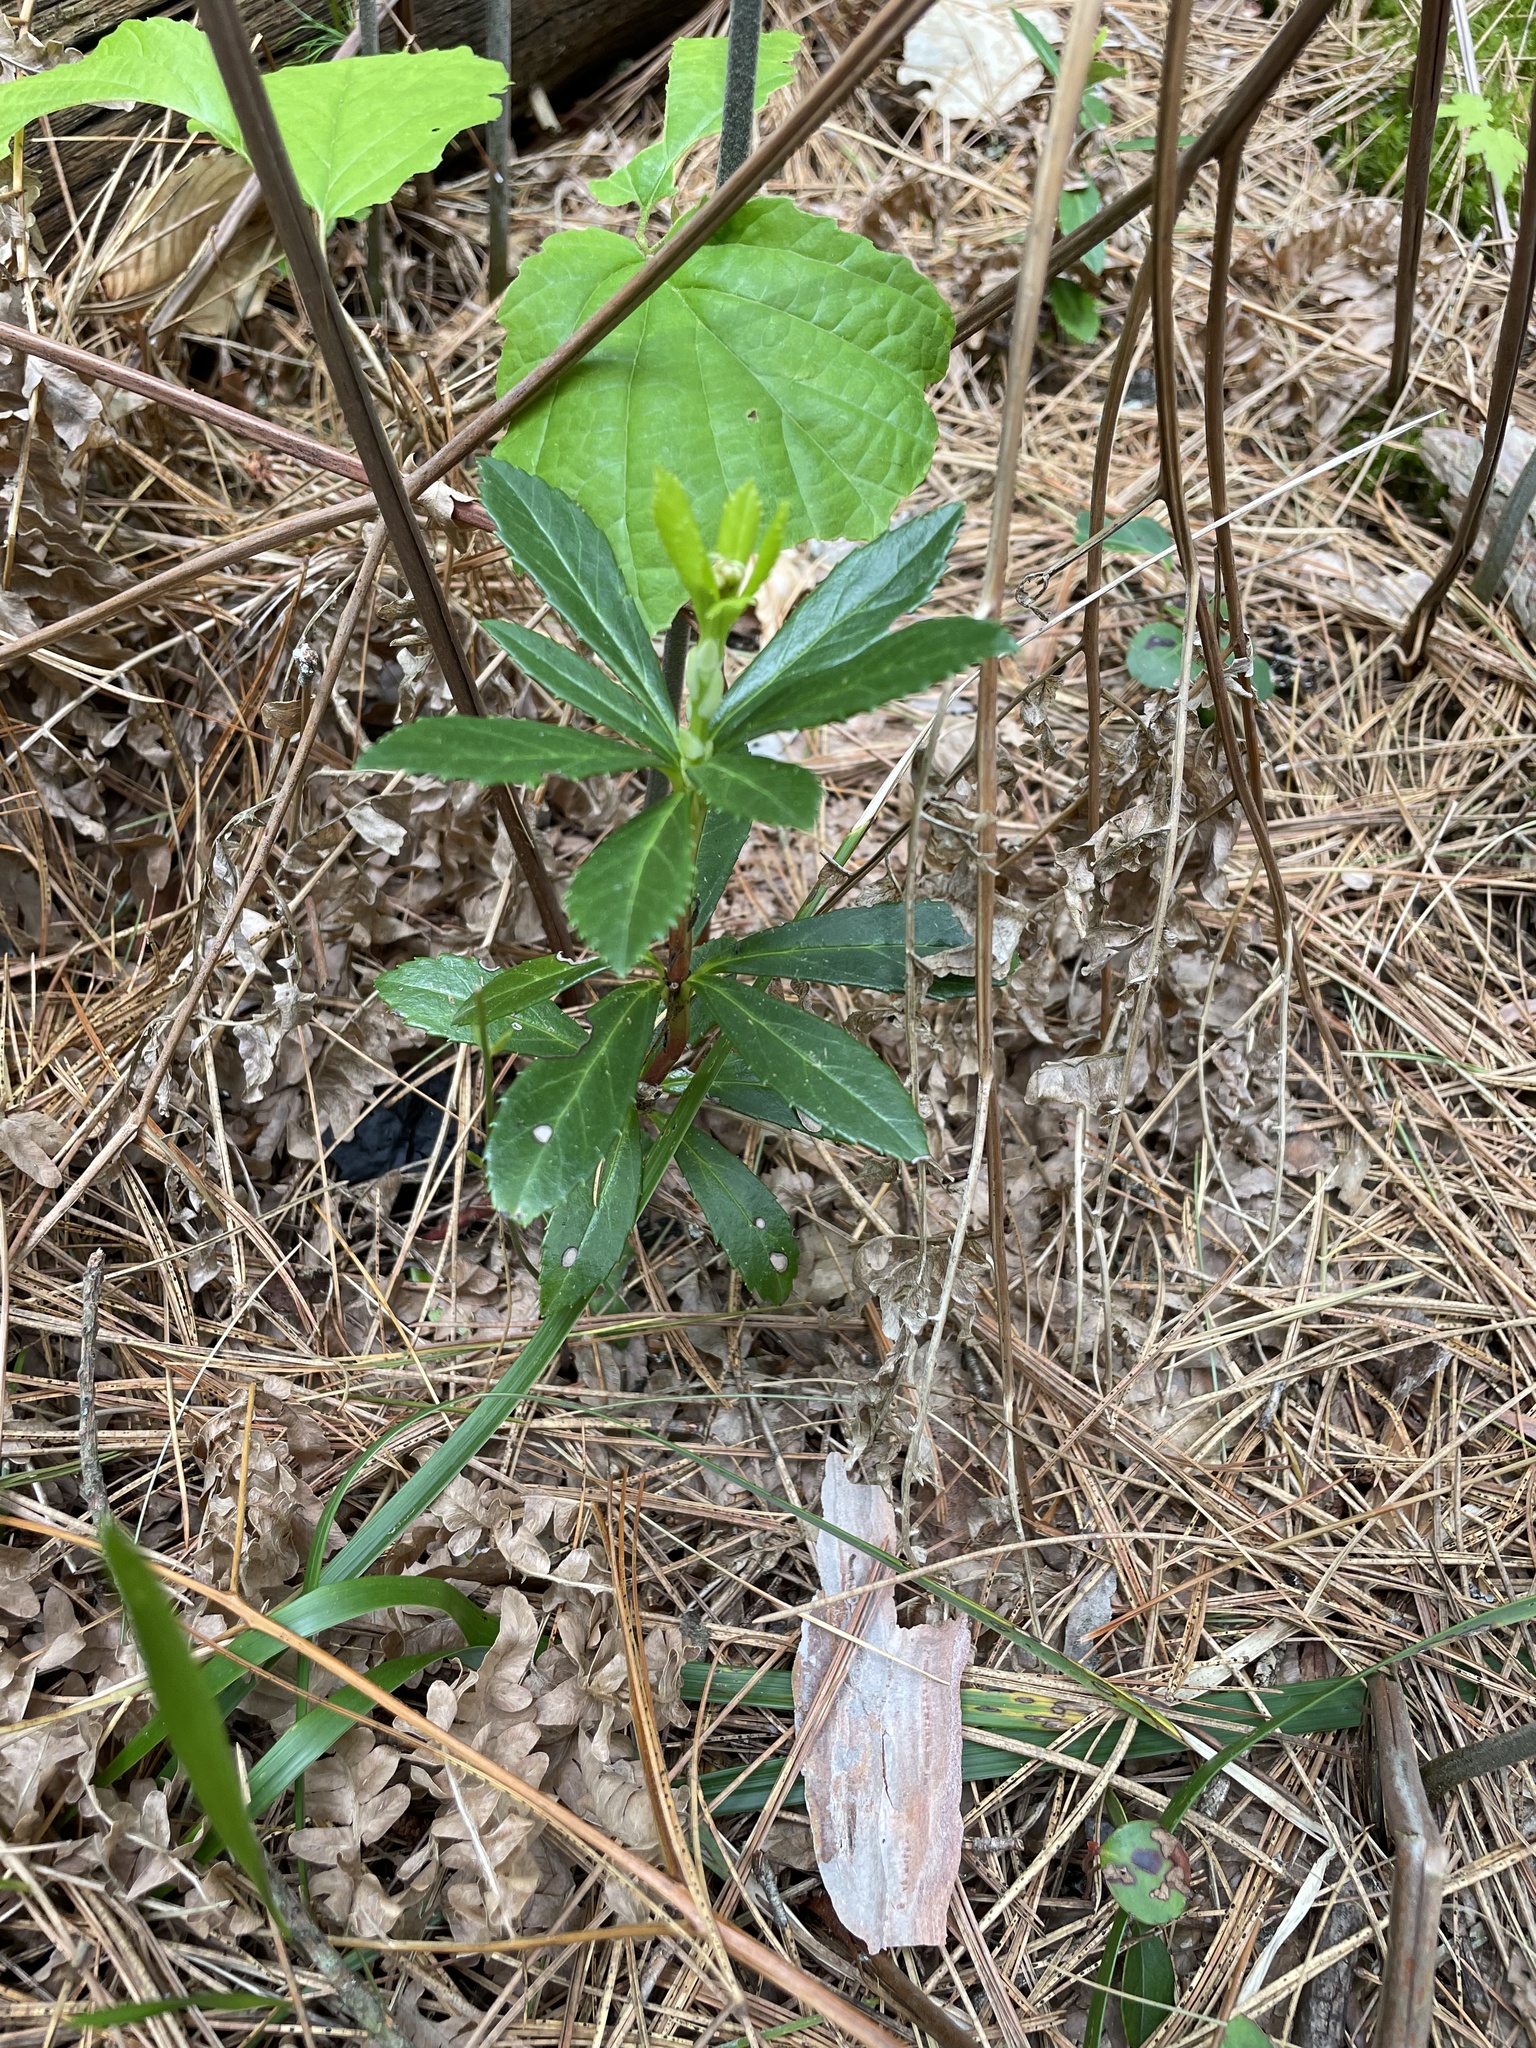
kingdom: Plantae
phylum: Tracheophyta
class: Magnoliopsida
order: Ericales
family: Ericaceae
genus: Chimaphila
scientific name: Chimaphila umbellata
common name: Pipsissewa
